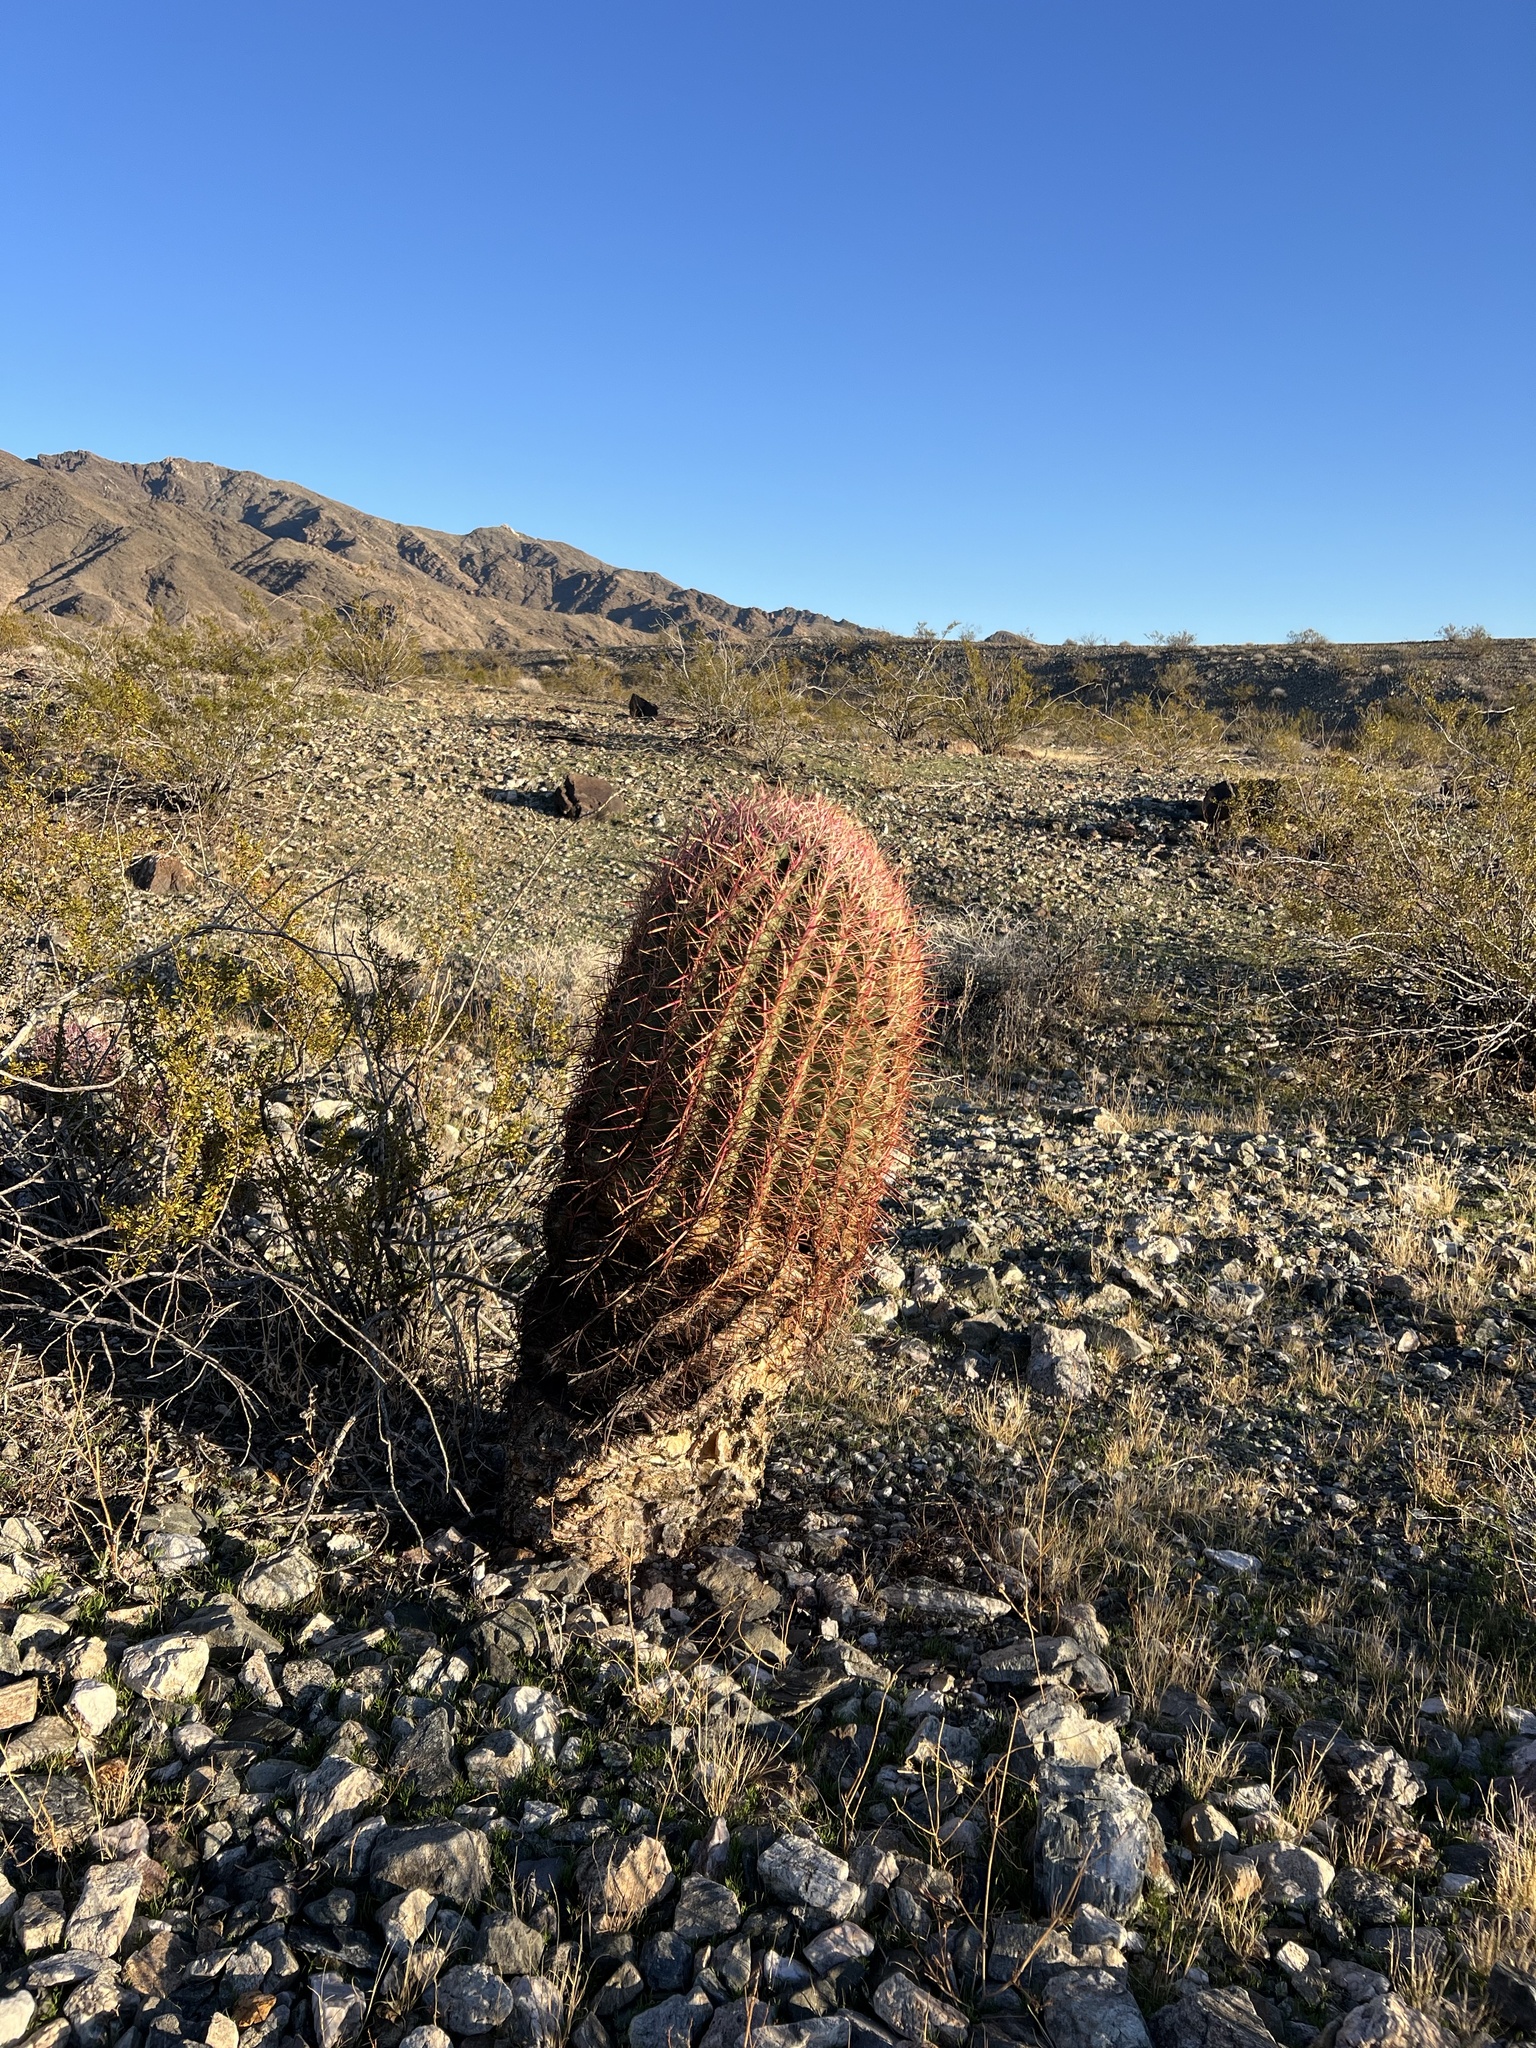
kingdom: Plantae
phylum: Tracheophyta
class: Magnoliopsida
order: Caryophyllales
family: Cactaceae
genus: Ferocactus
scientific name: Ferocactus cylindraceus
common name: California barrel cactus
